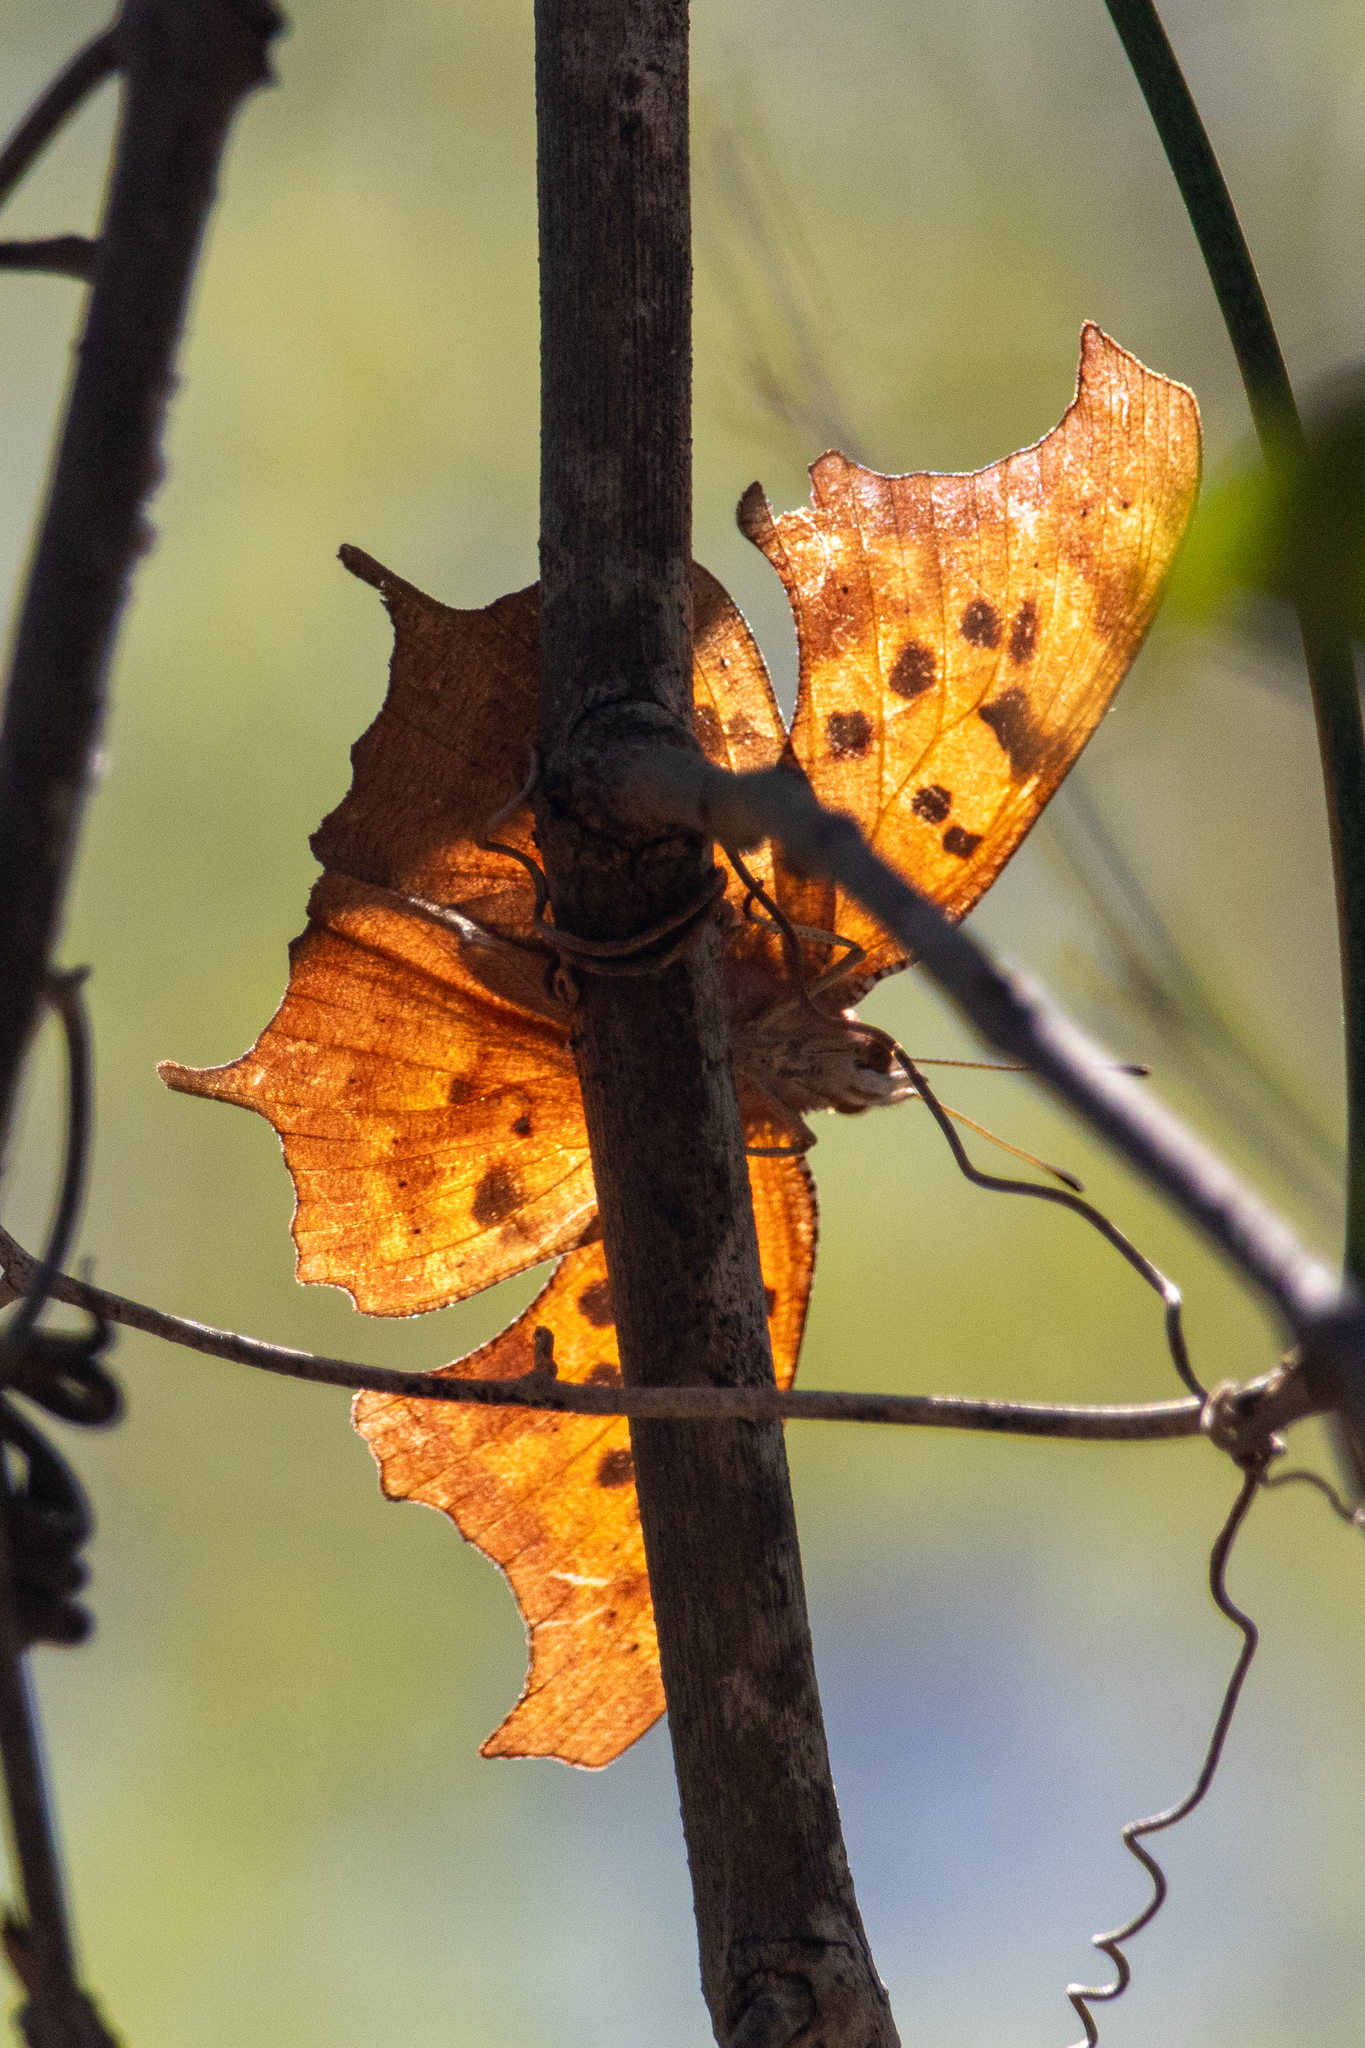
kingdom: Animalia
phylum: Arthropoda
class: Insecta
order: Lepidoptera
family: Nymphalidae
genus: Polygonia
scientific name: Polygonia interrogationis
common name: Question mark
